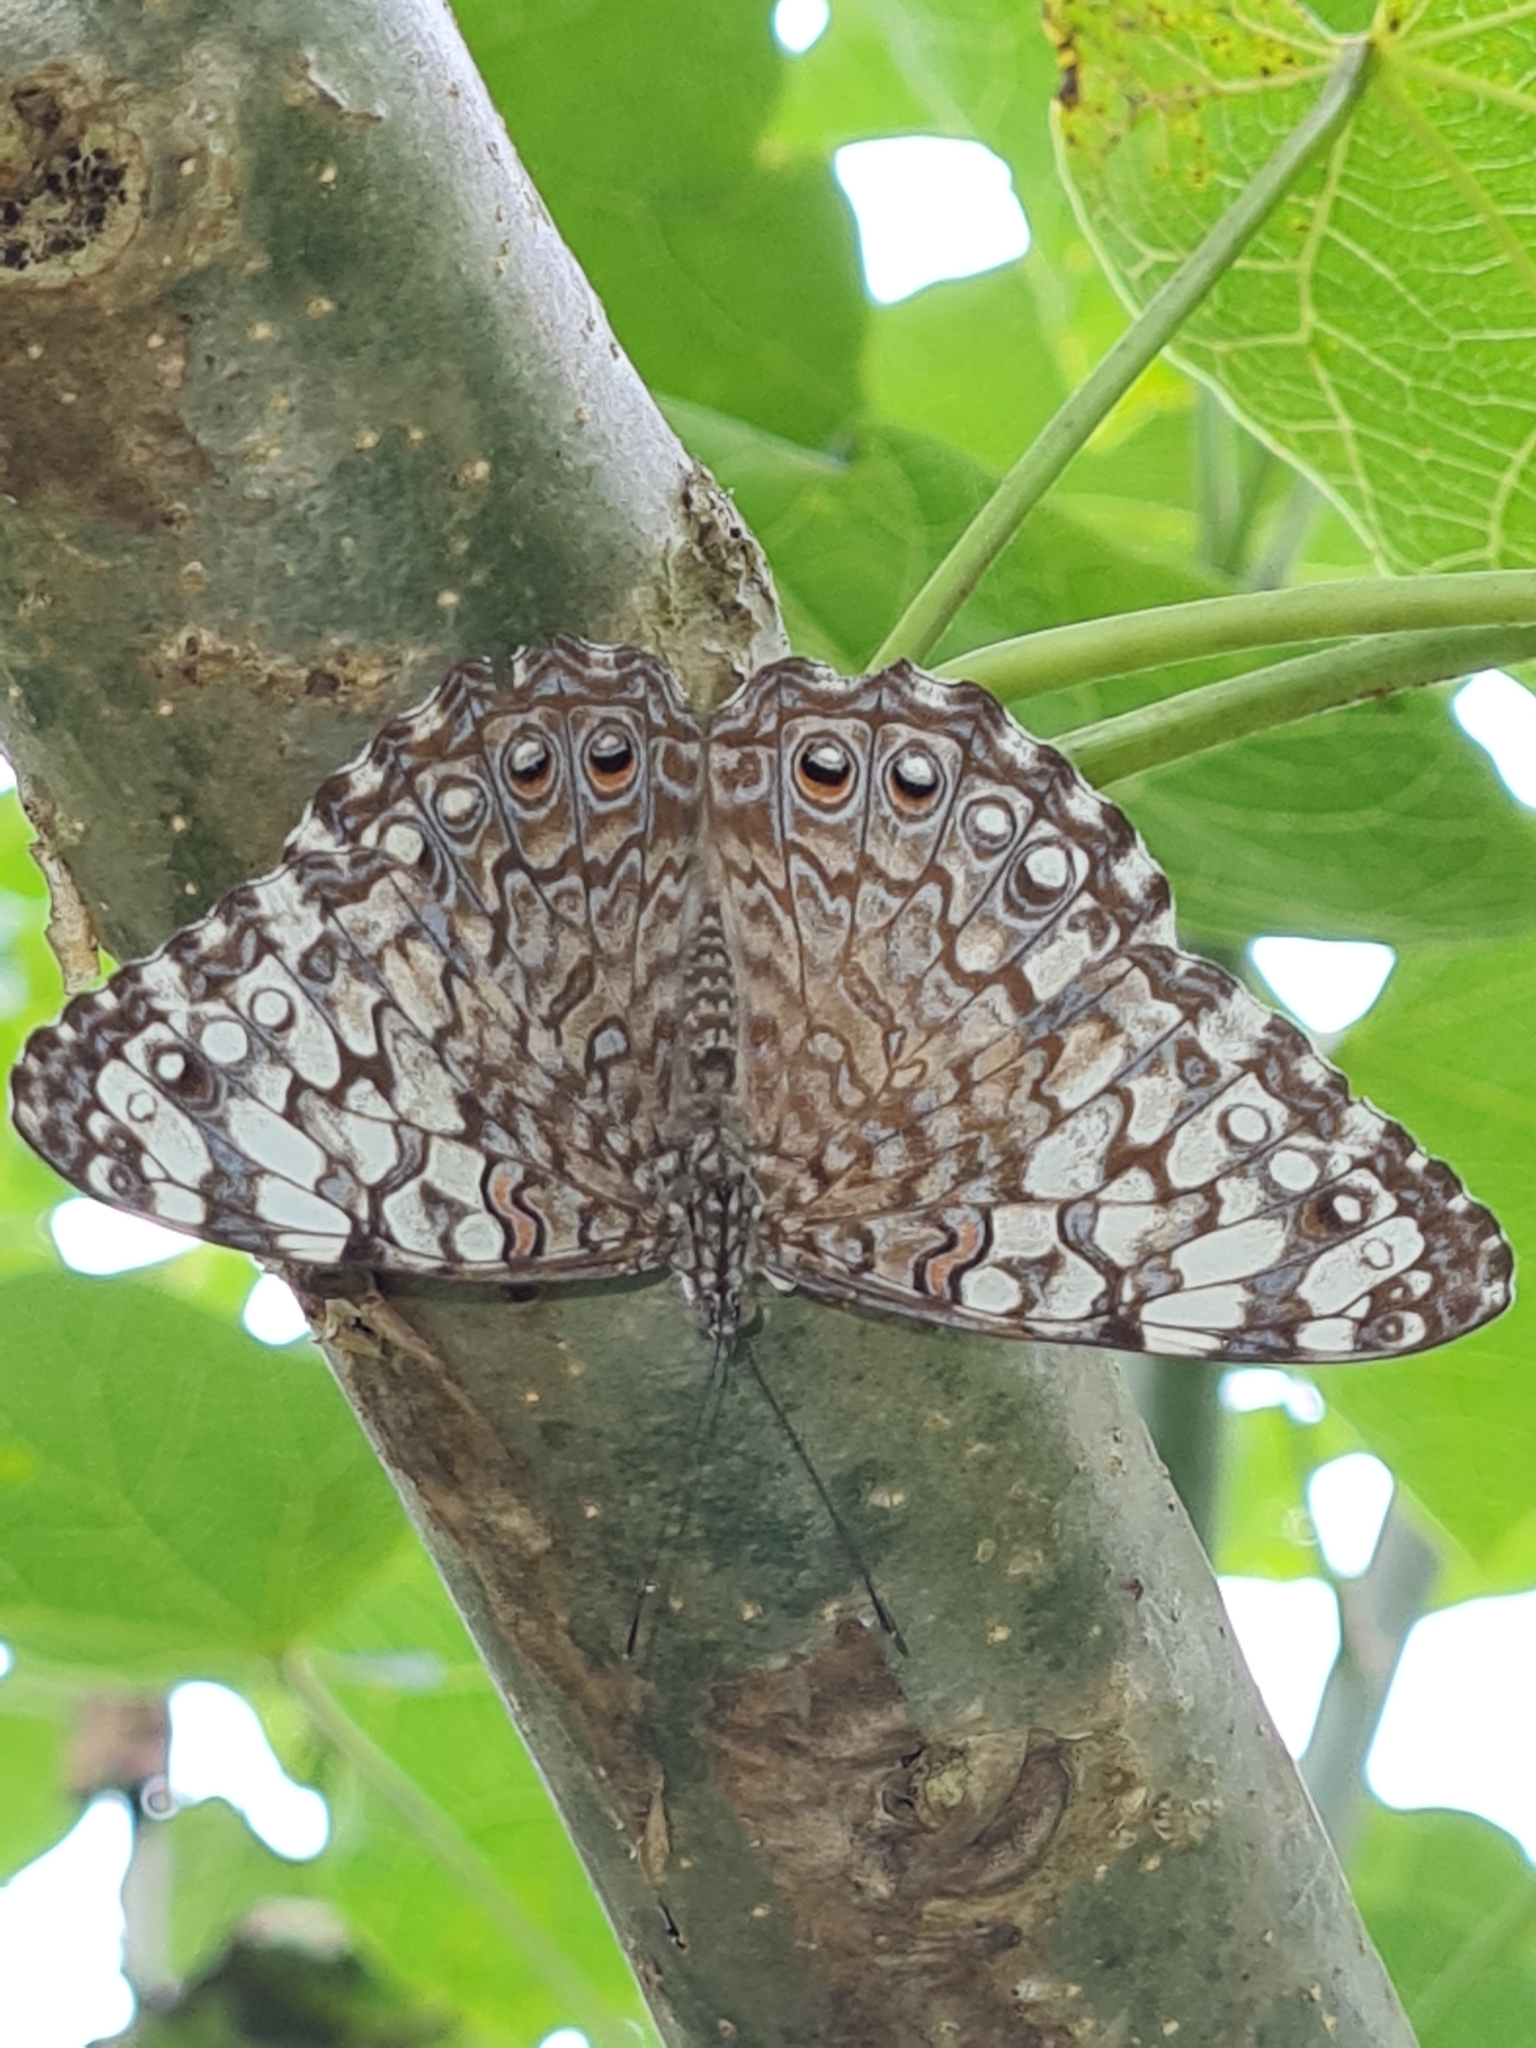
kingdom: Animalia
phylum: Arthropoda
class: Insecta
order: Lepidoptera
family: Nymphalidae
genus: Hamadryas
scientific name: Hamadryas februa
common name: Gray cracker
